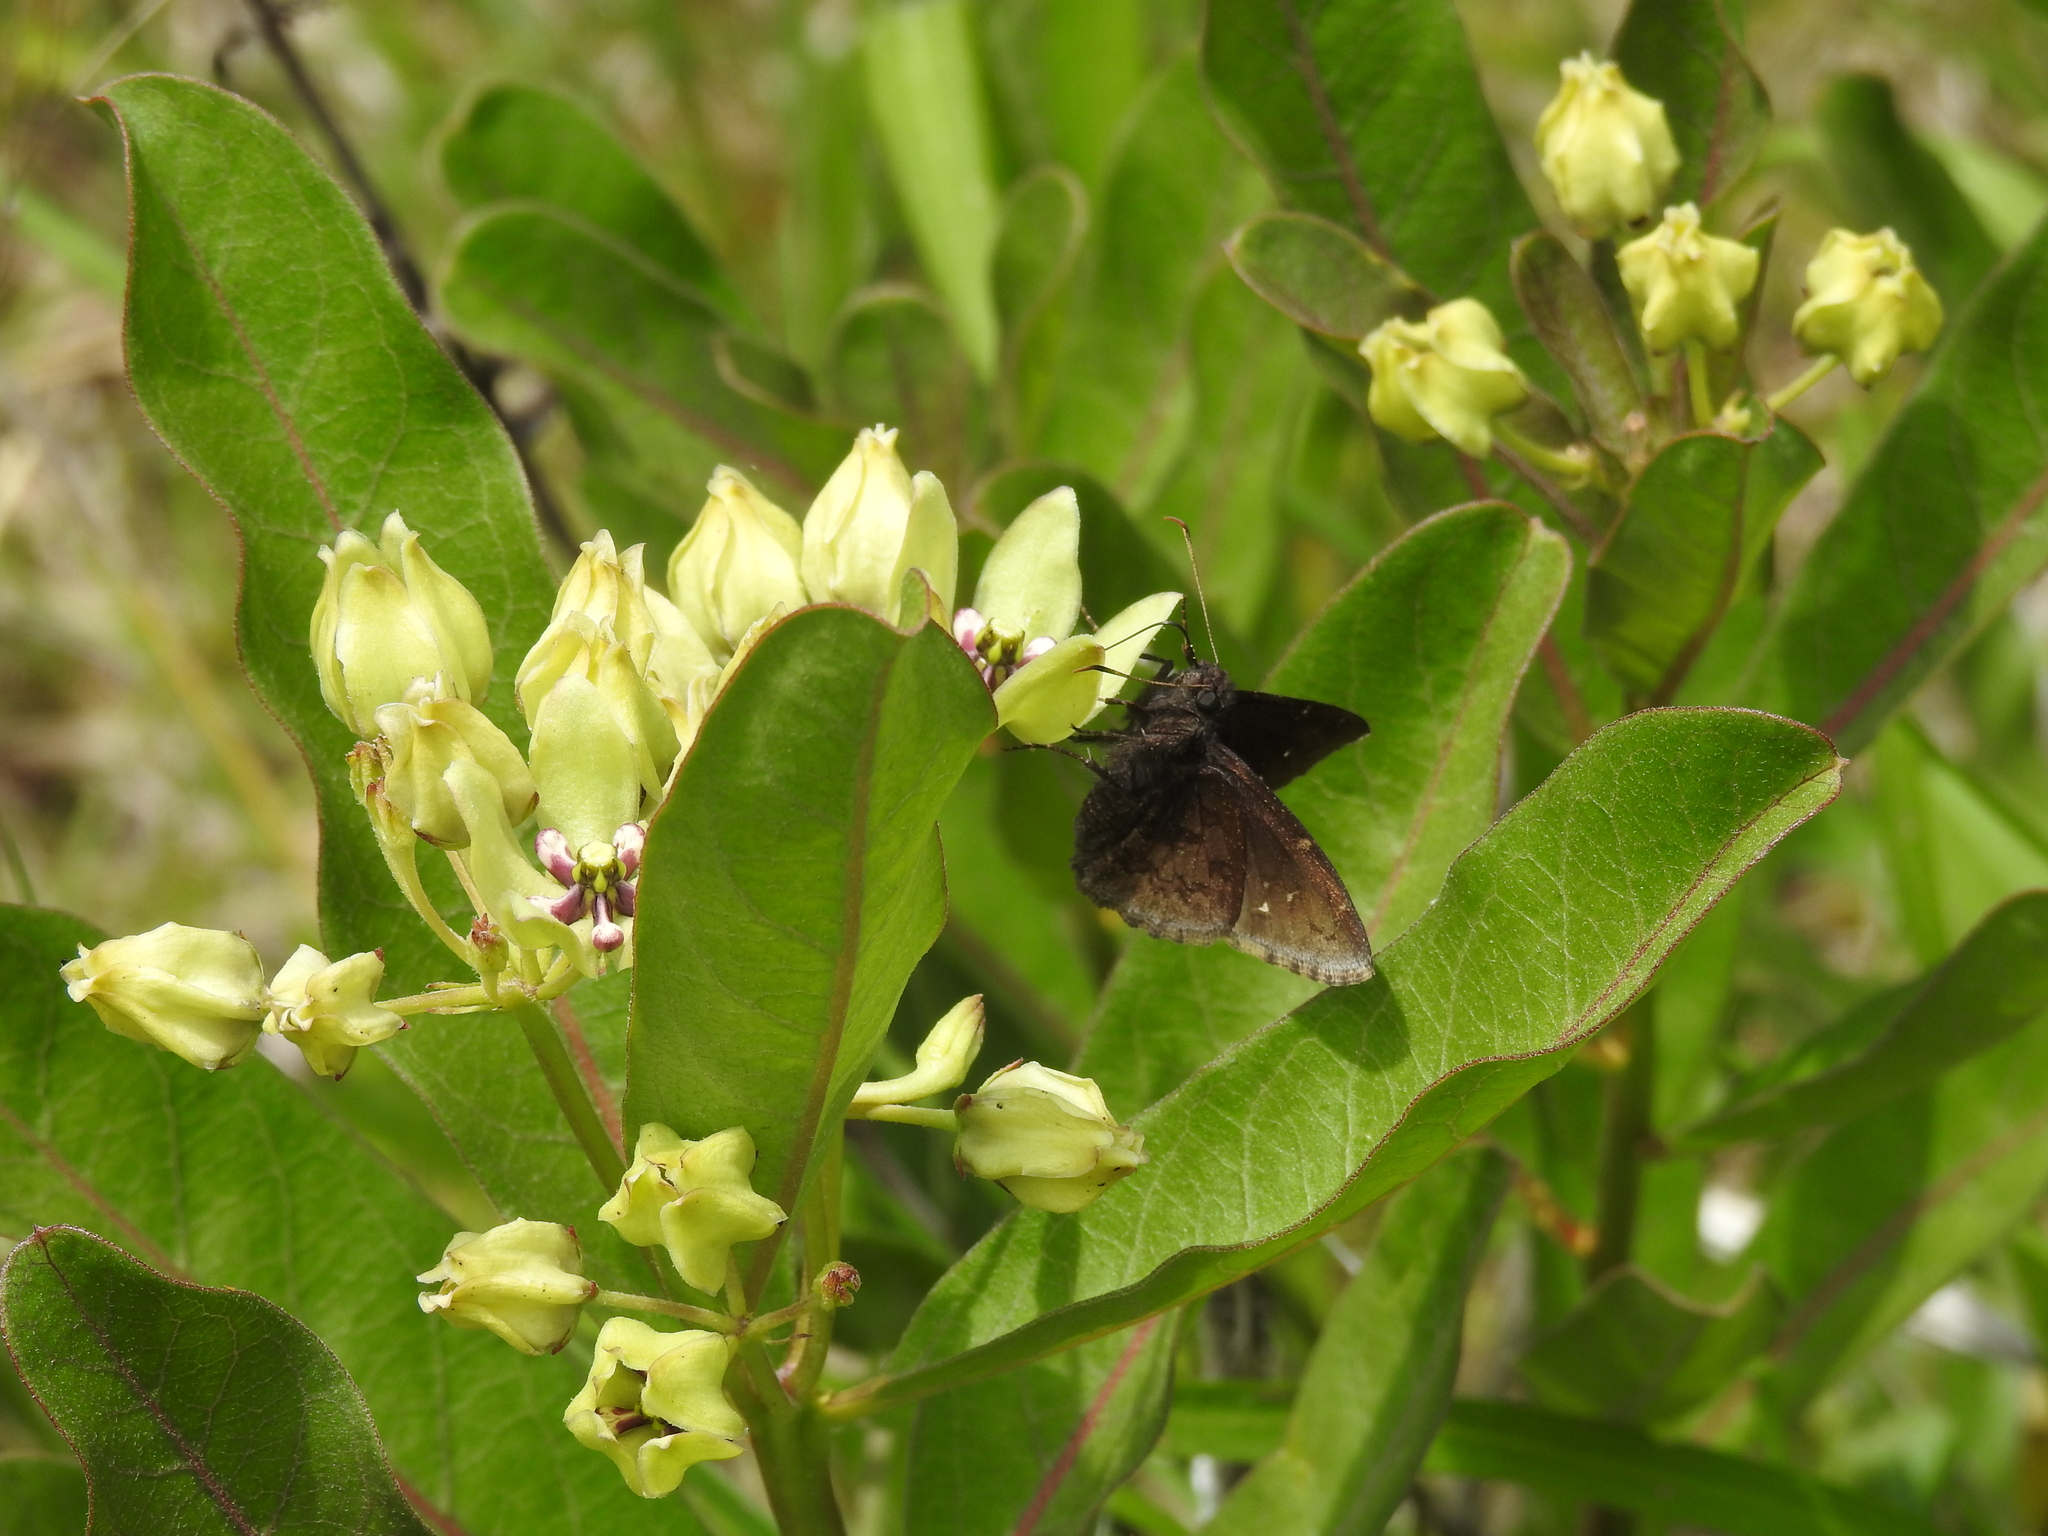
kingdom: Animalia
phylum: Arthropoda
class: Insecta
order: Lepidoptera
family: Hesperiidae
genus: Thorybes
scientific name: Thorybes pylades
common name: Northern cloudywing
